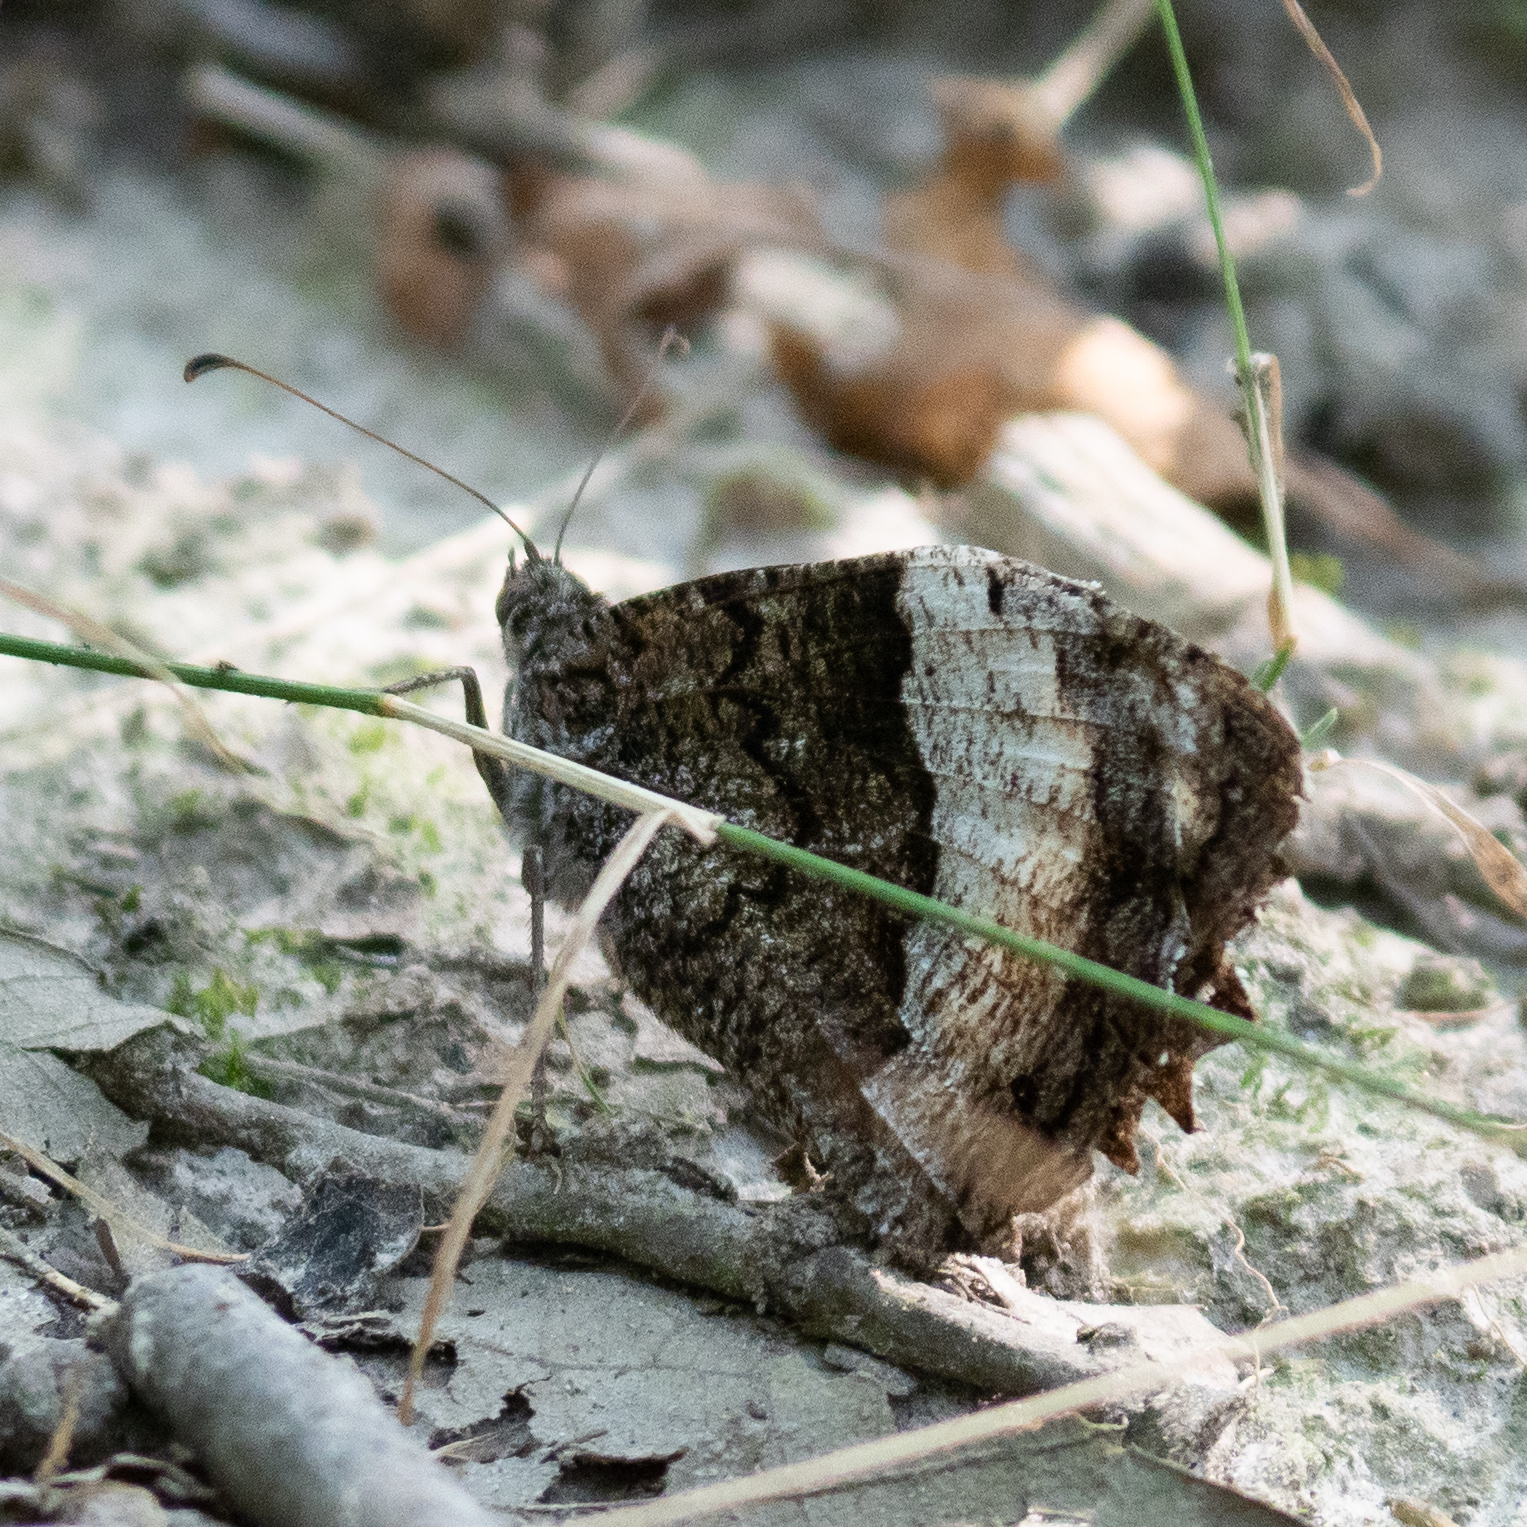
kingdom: Animalia
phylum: Arthropoda
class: Insecta
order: Lepidoptera
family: Nymphalidae
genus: Hipparchia
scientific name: Hipparchia fagi
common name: Woodland grayling
